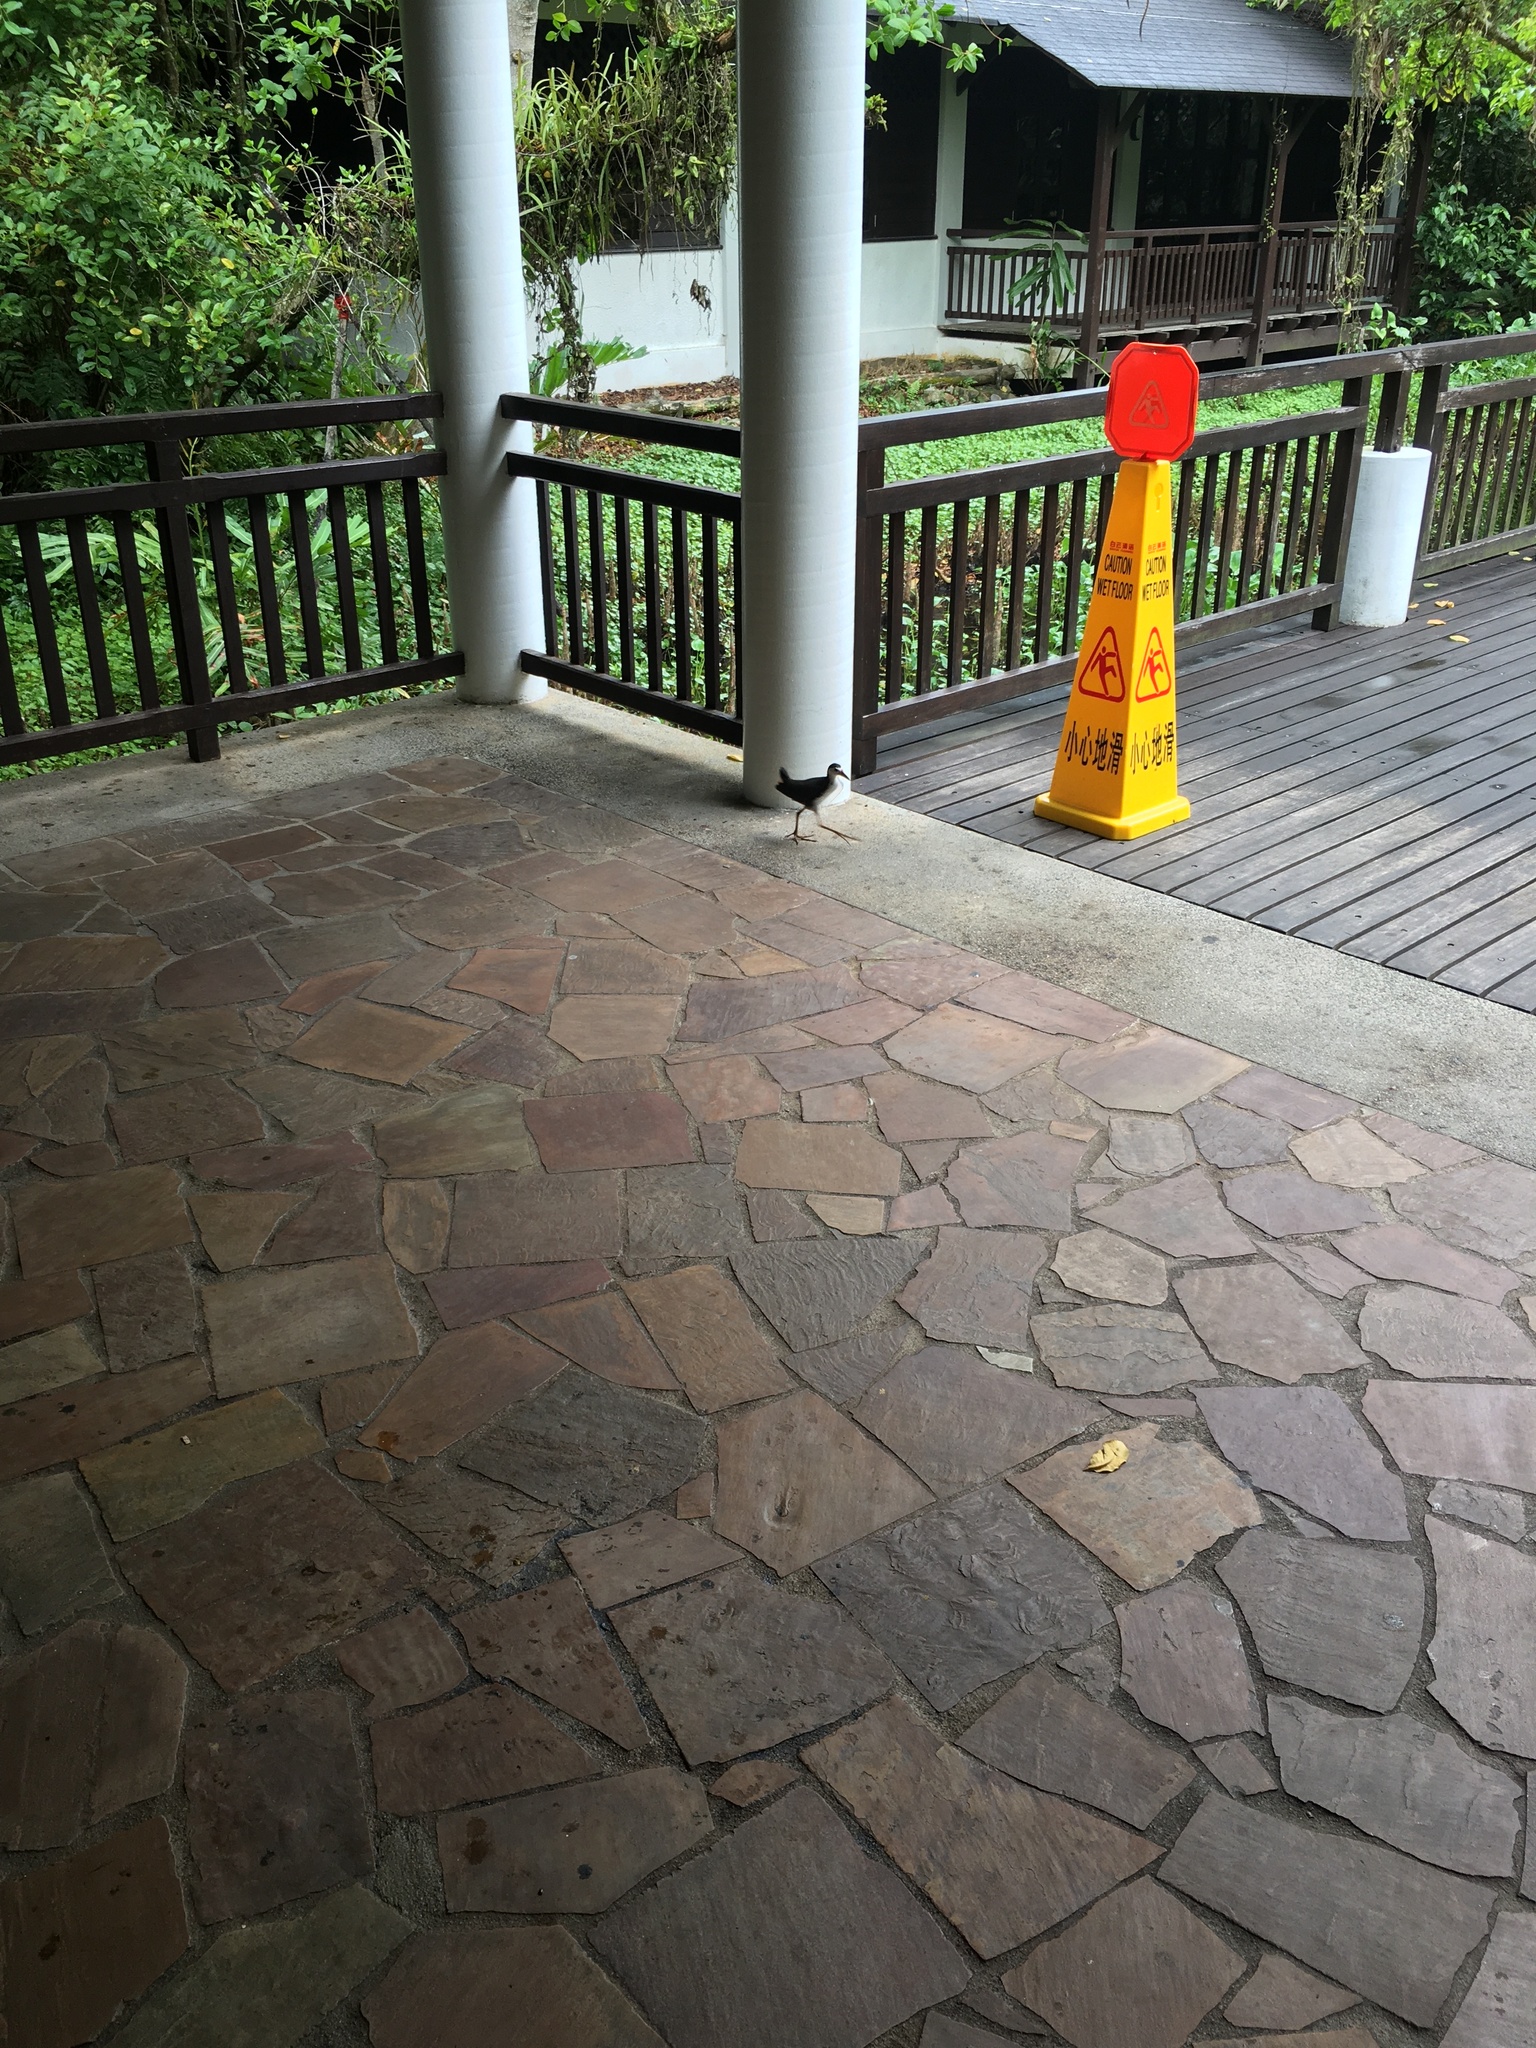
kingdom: Animalia
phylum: Chordata
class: Aves
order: Gruiformes
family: Rallidae
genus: Amaurornis
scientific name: Amaurornis phoenicurus
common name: White-breasted waterhen
